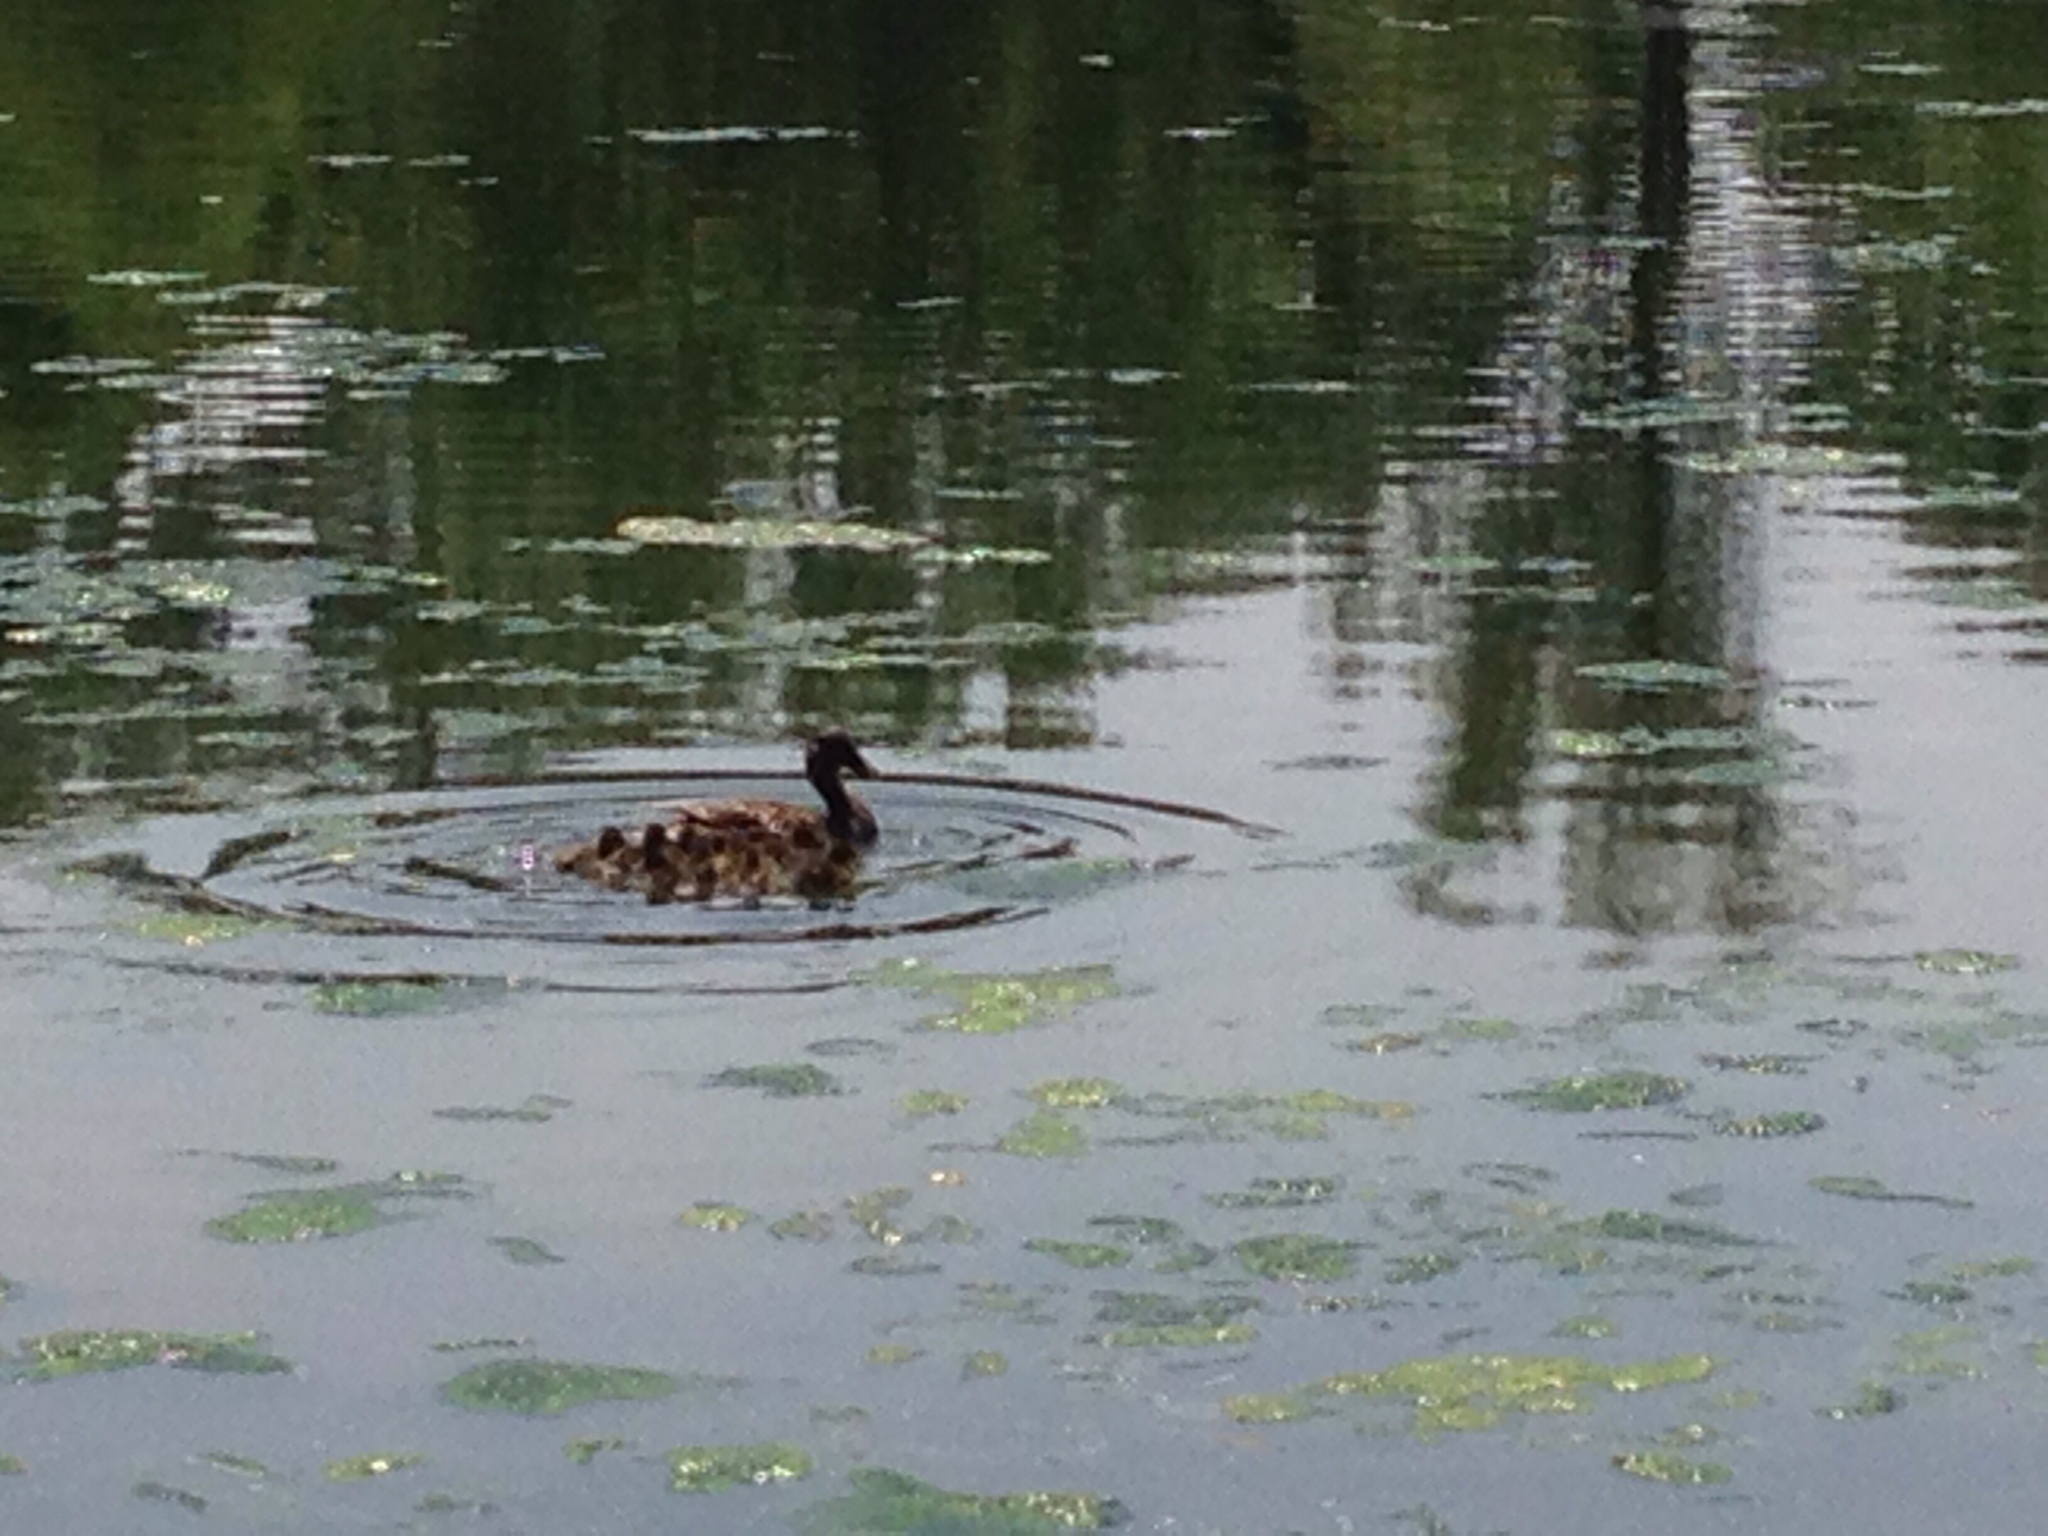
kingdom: Animalia
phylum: Chordata
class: Aves
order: Anseriformes
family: Anatidae
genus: Anas
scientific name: Anas platyrhynchos
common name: Mallard
